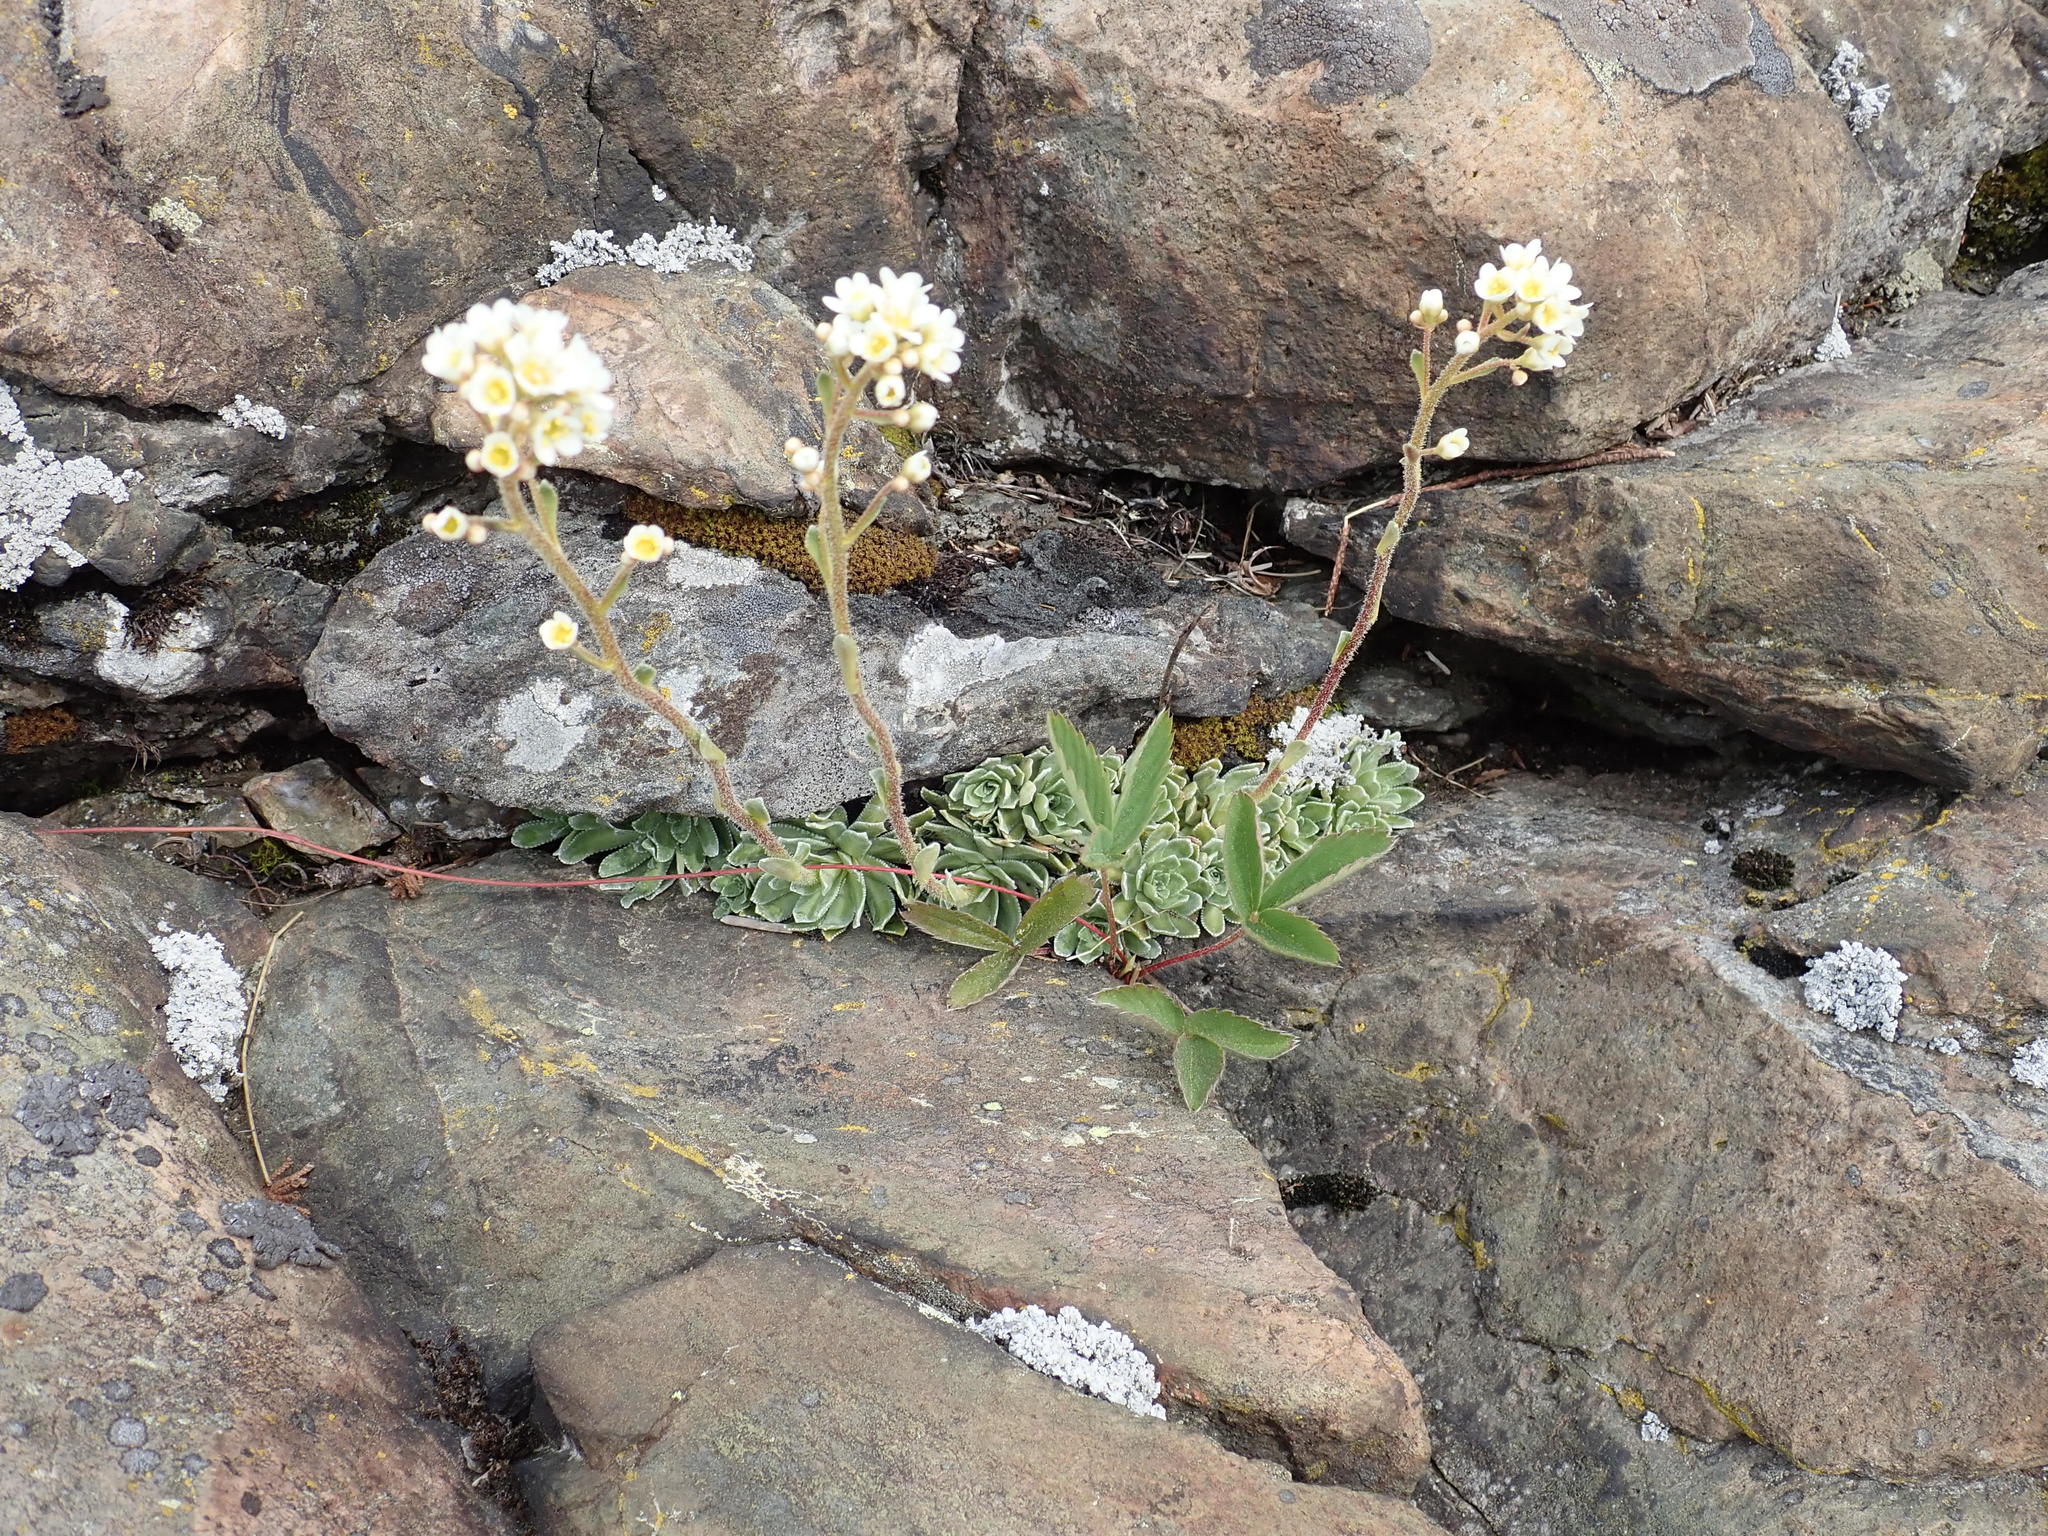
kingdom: Plantae
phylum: Tracheophyta
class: Magnoliopsida
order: Saxifragales
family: Saxifragaceae
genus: Saxifraga
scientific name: Saxifraga paniculata
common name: Livelong saxifrage
